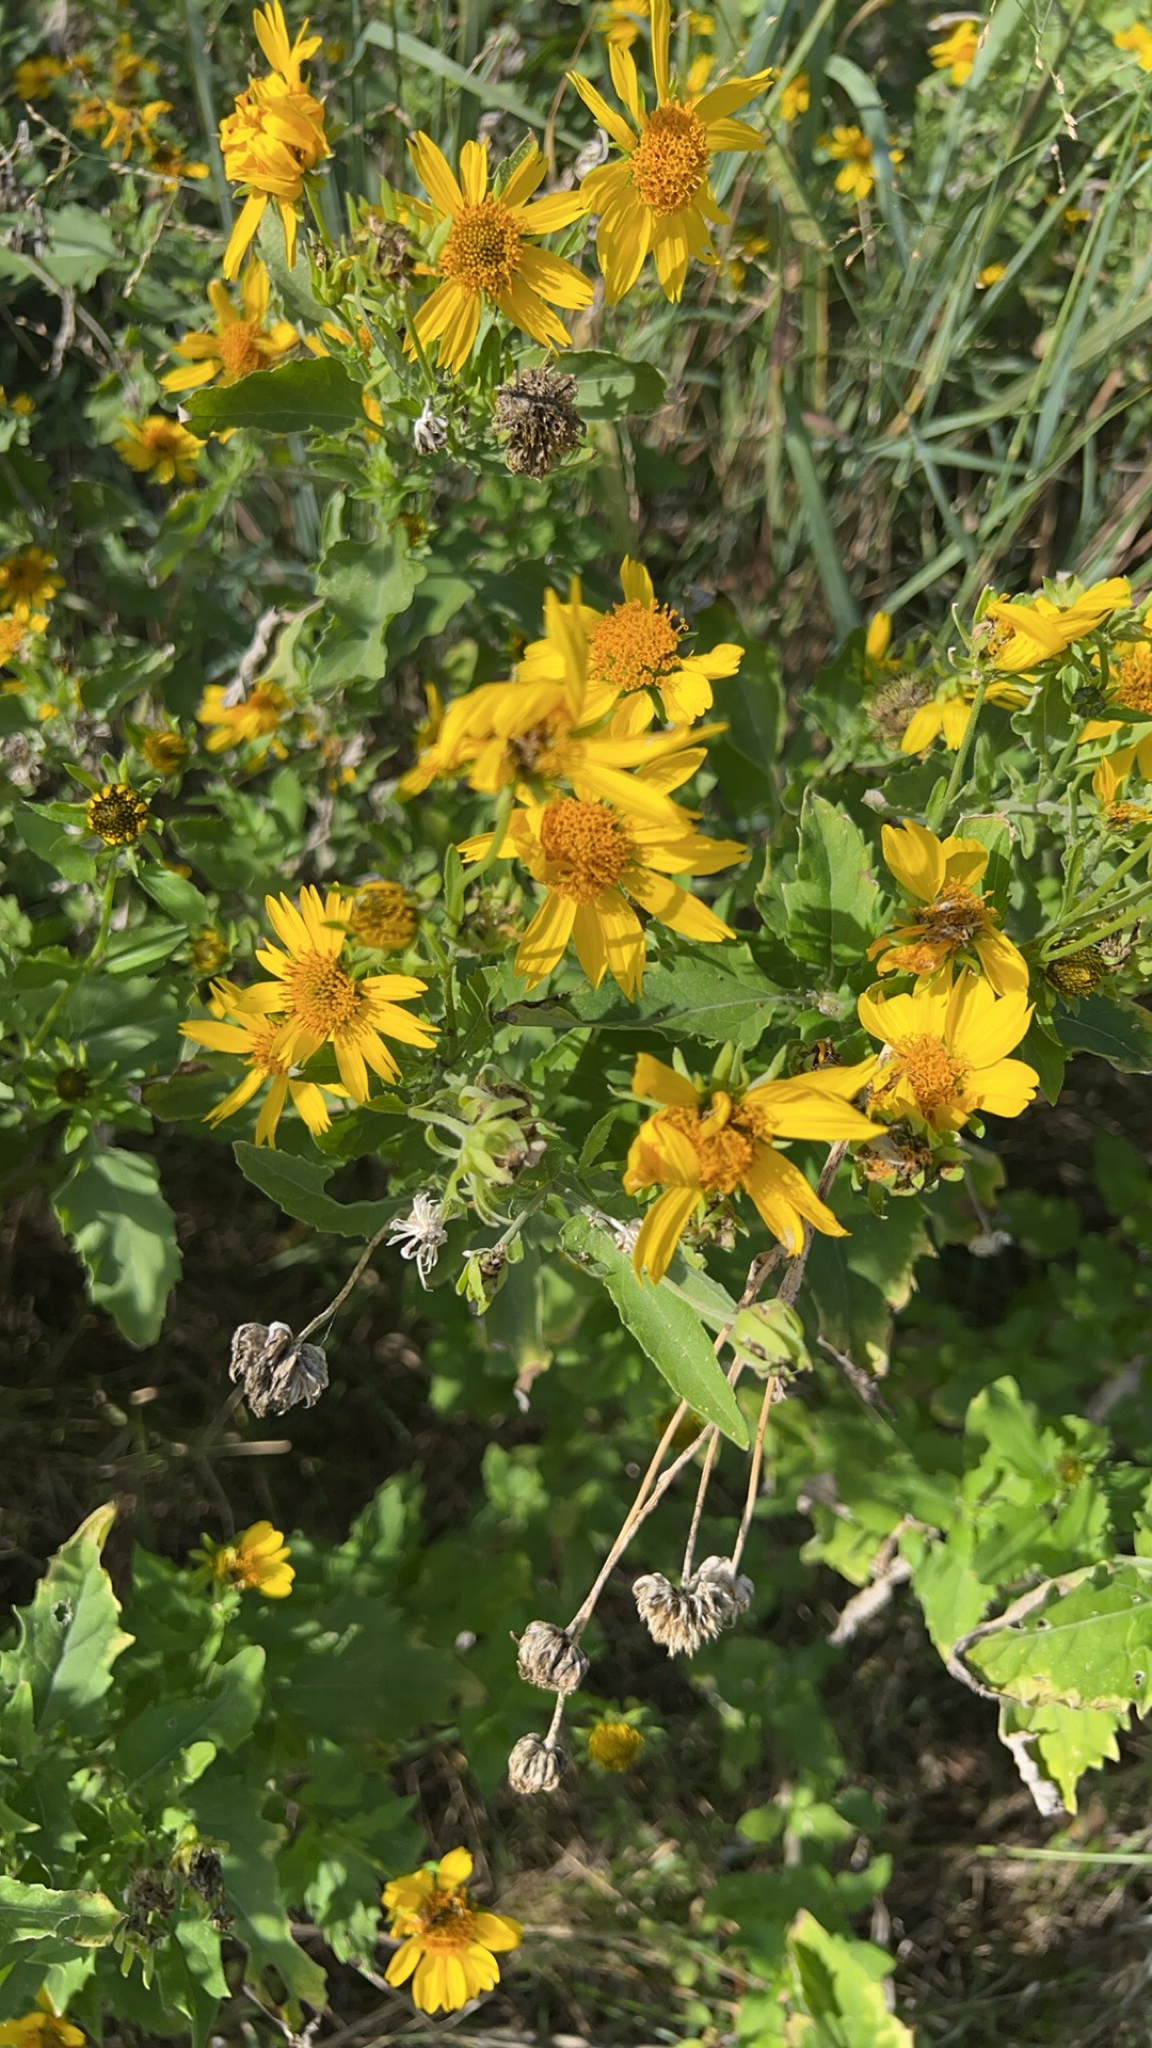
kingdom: Plantae
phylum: Tracheophyta
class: Magnoliopsida
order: Asterales
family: Asteraceae
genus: Verbesina
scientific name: Verbesina encelioides
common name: Golden crownbeard
